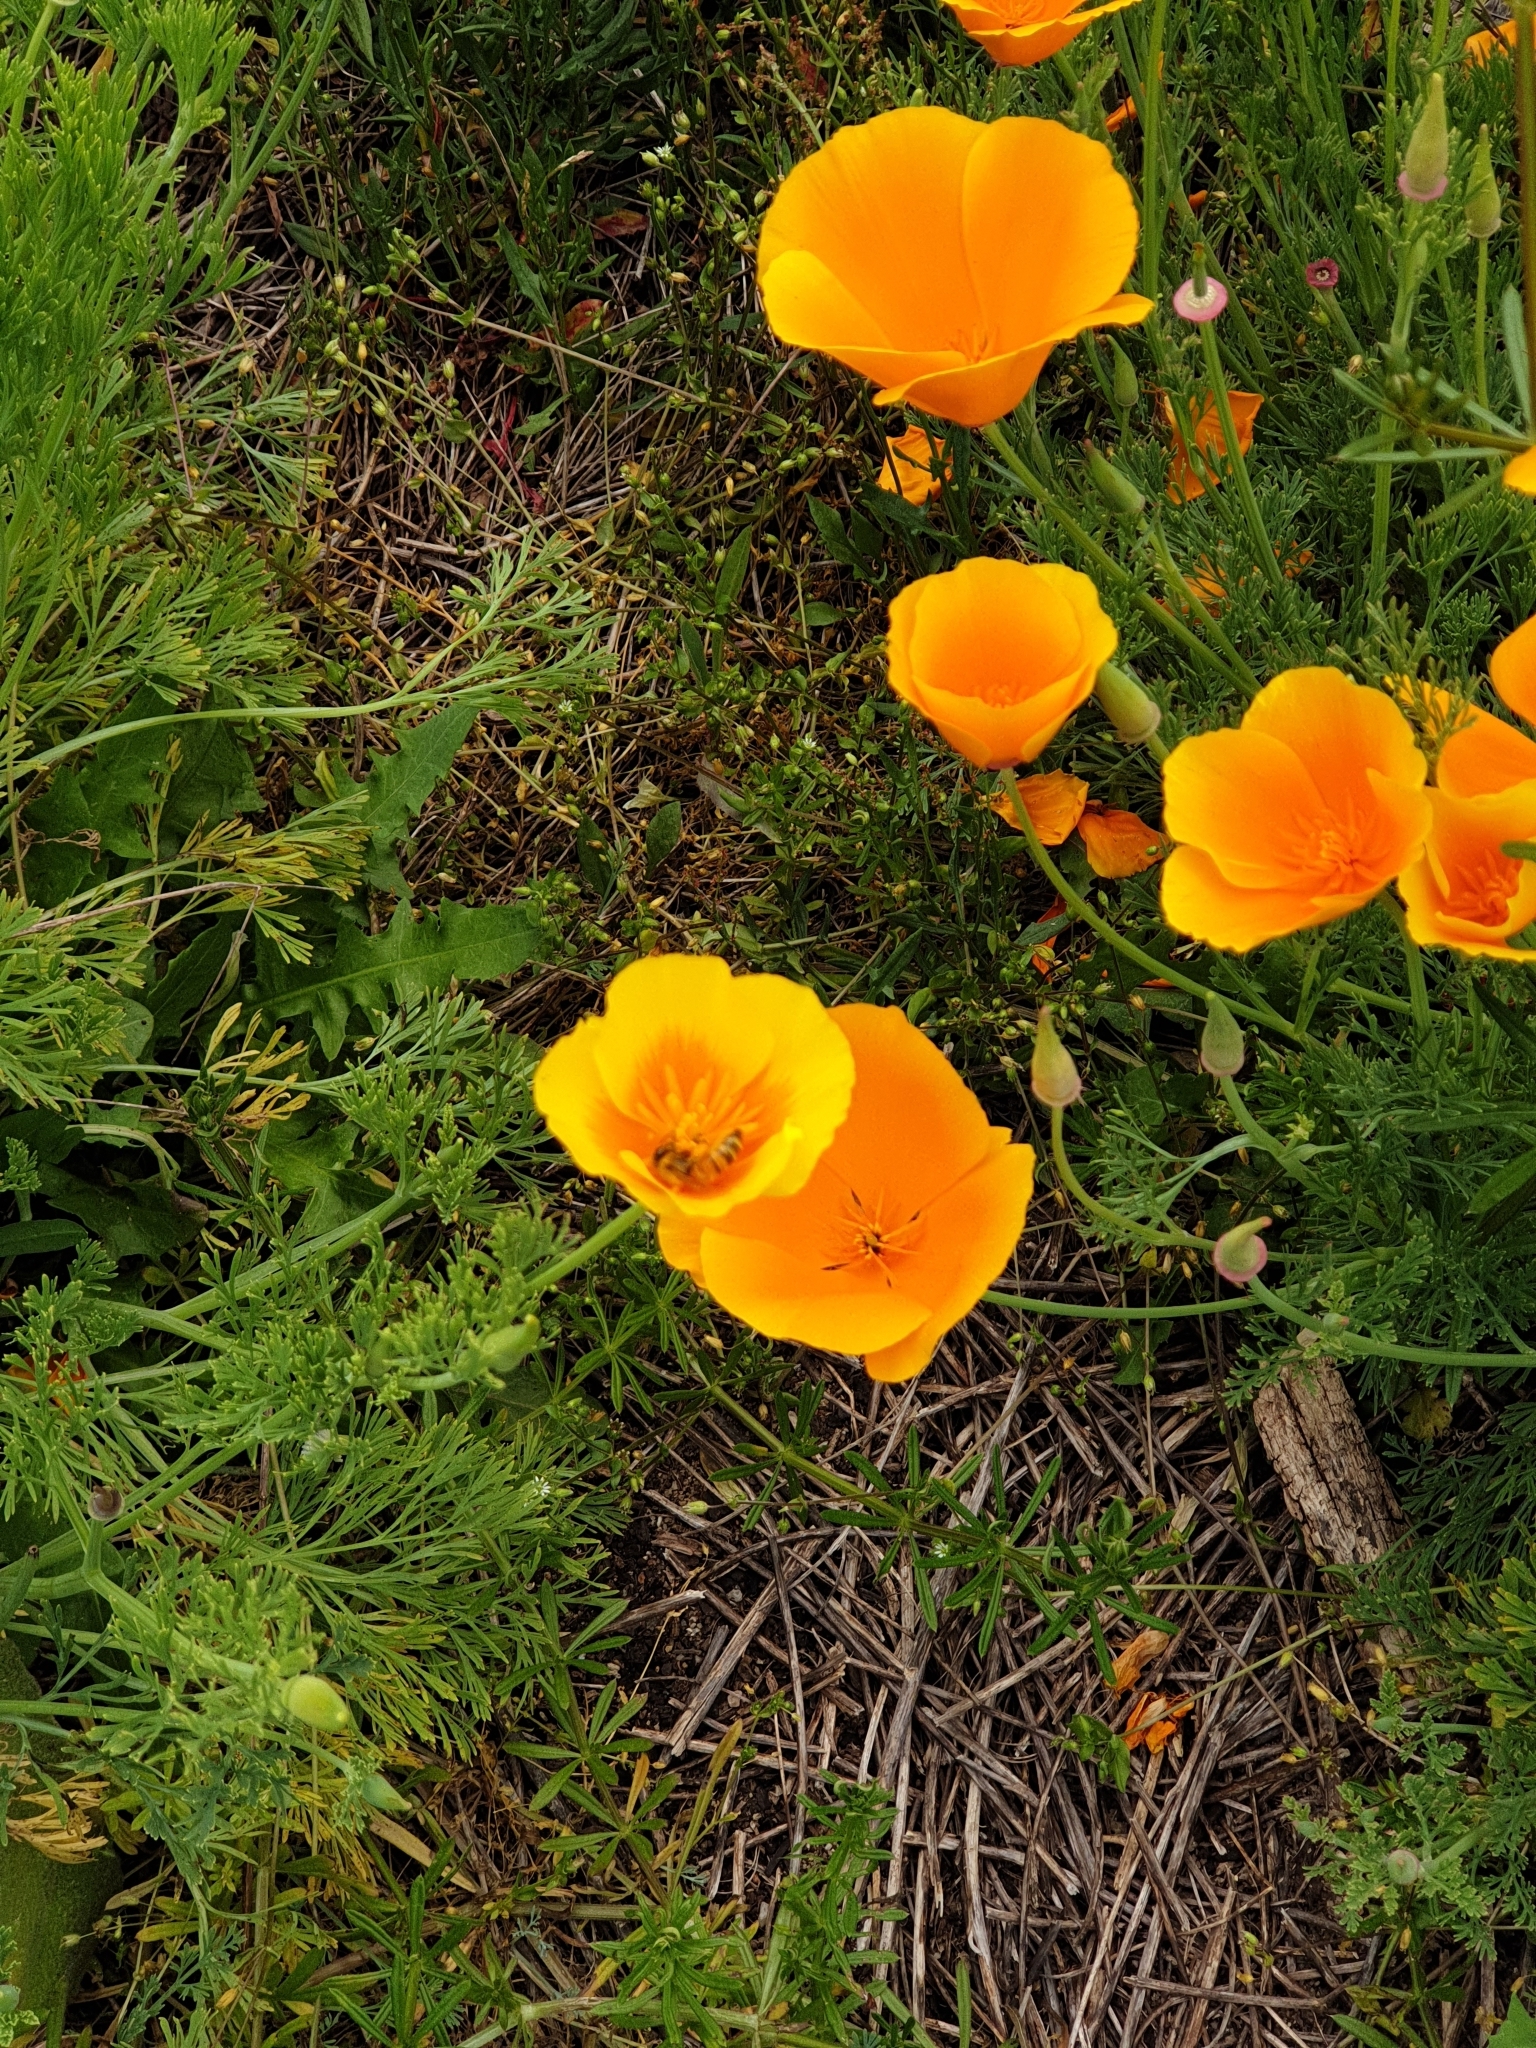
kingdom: Plantae
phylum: Tracheophyta
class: Magnoliopsida
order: Ranunculales
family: Papaveraceae
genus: Eschscholzia
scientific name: Eschscholzia californica
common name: California poppy
